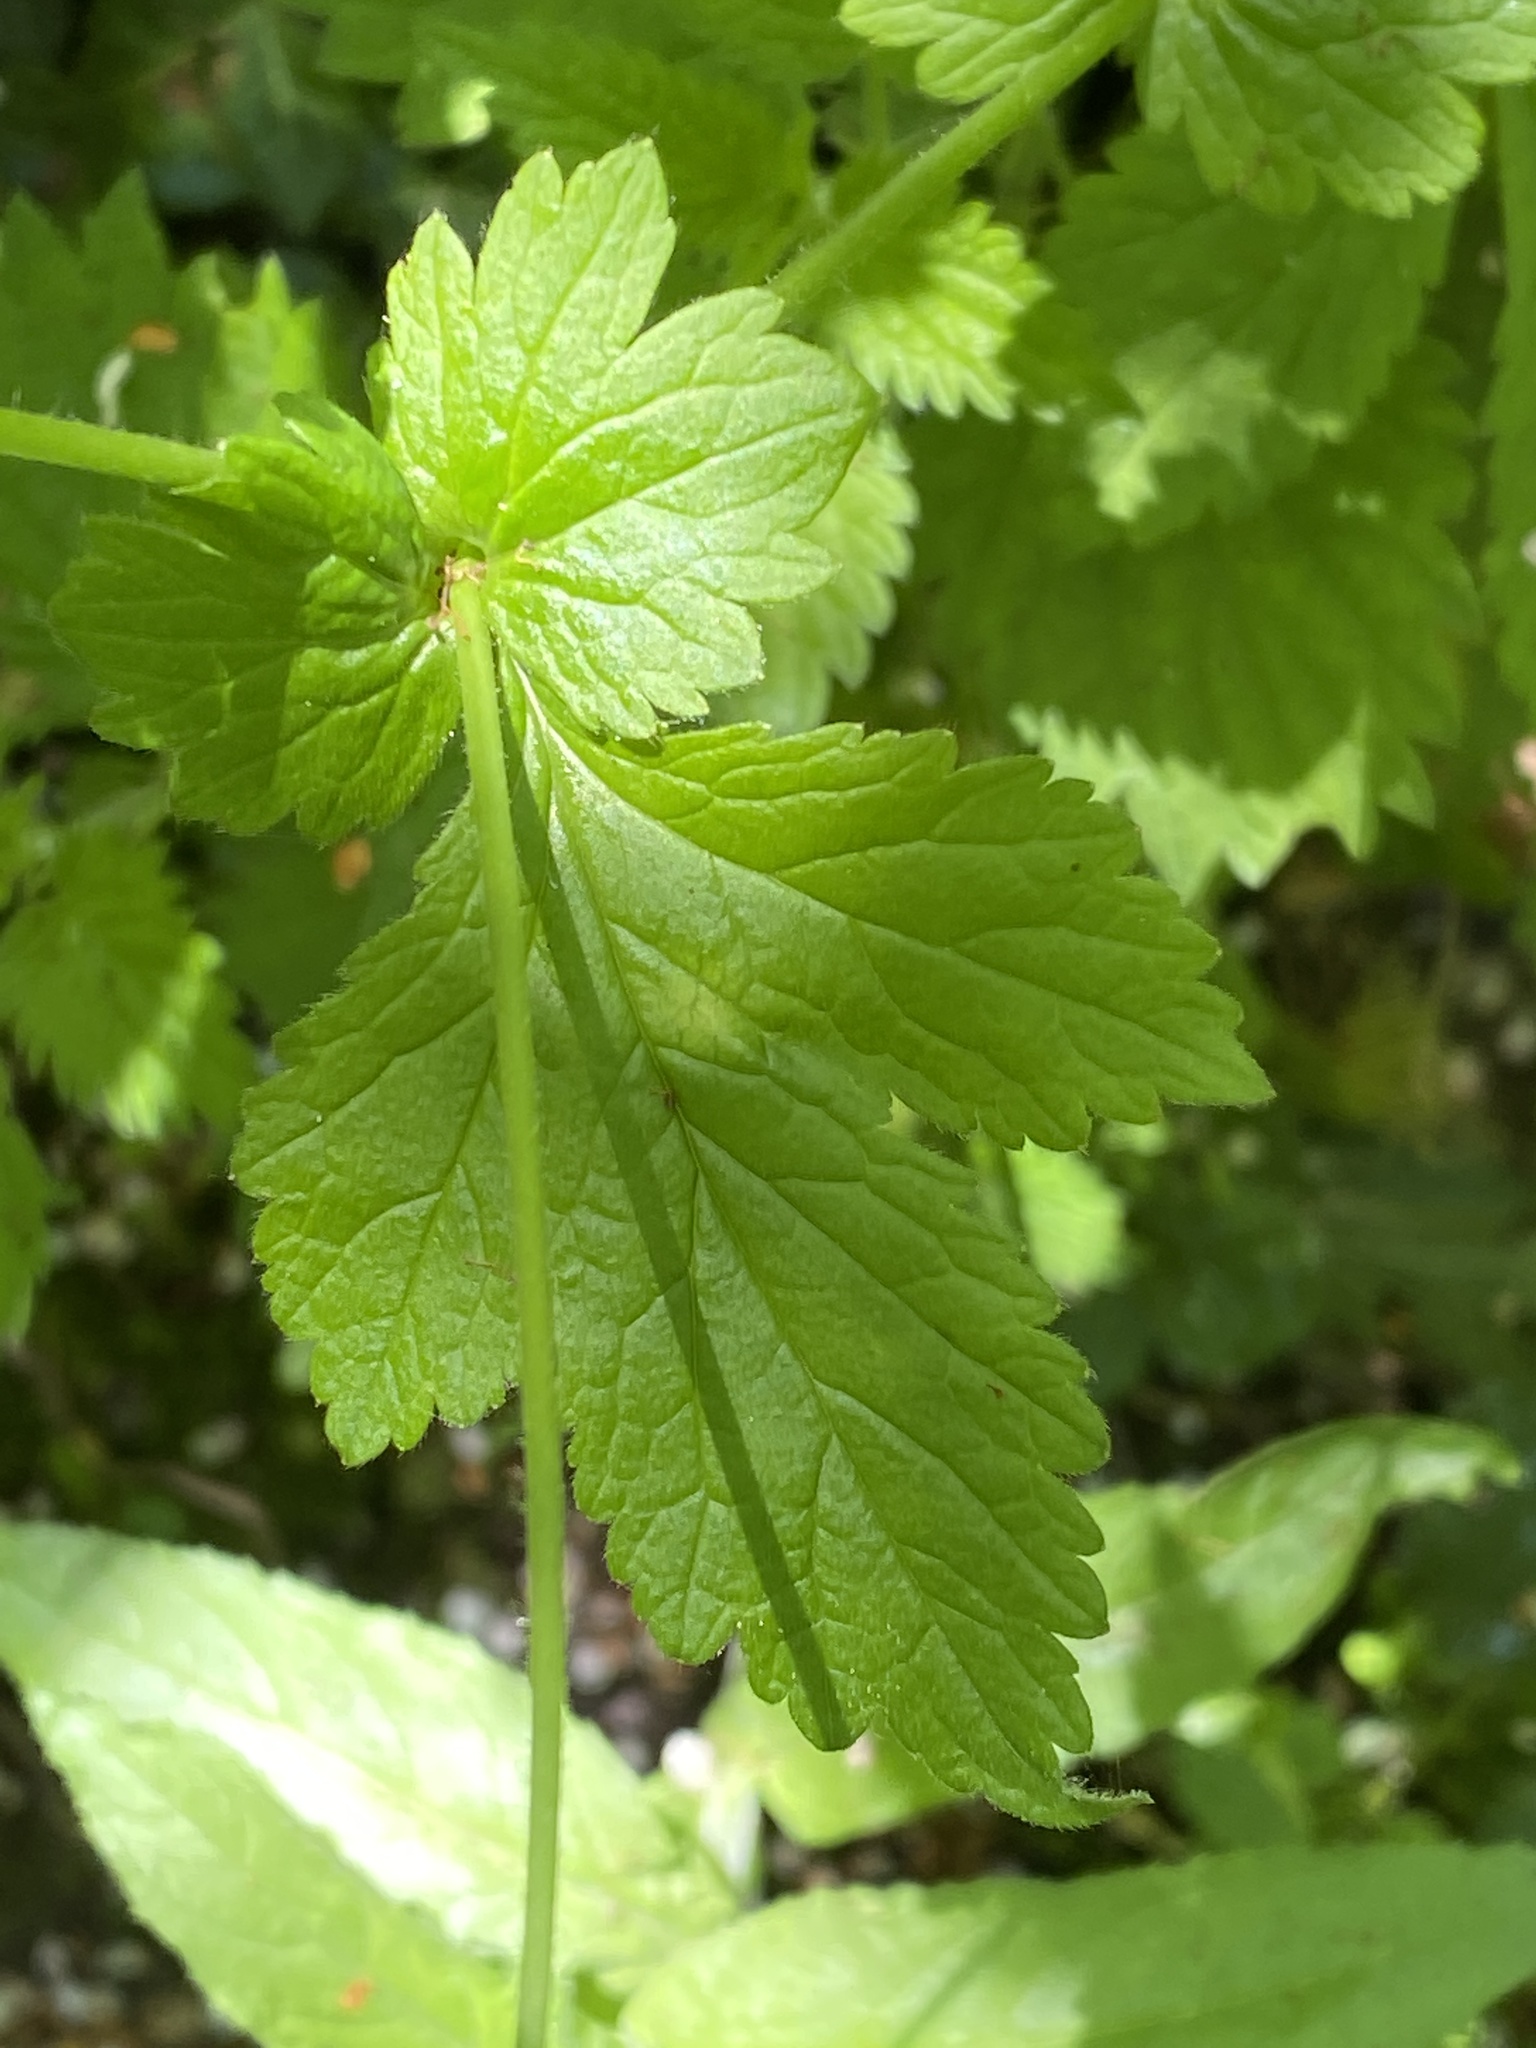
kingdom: Plantae
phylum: Tracheophyta
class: Magnoliopsida
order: Rosales
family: Rosaceae
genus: Geum
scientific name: Geum urbanum
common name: Wood avens
